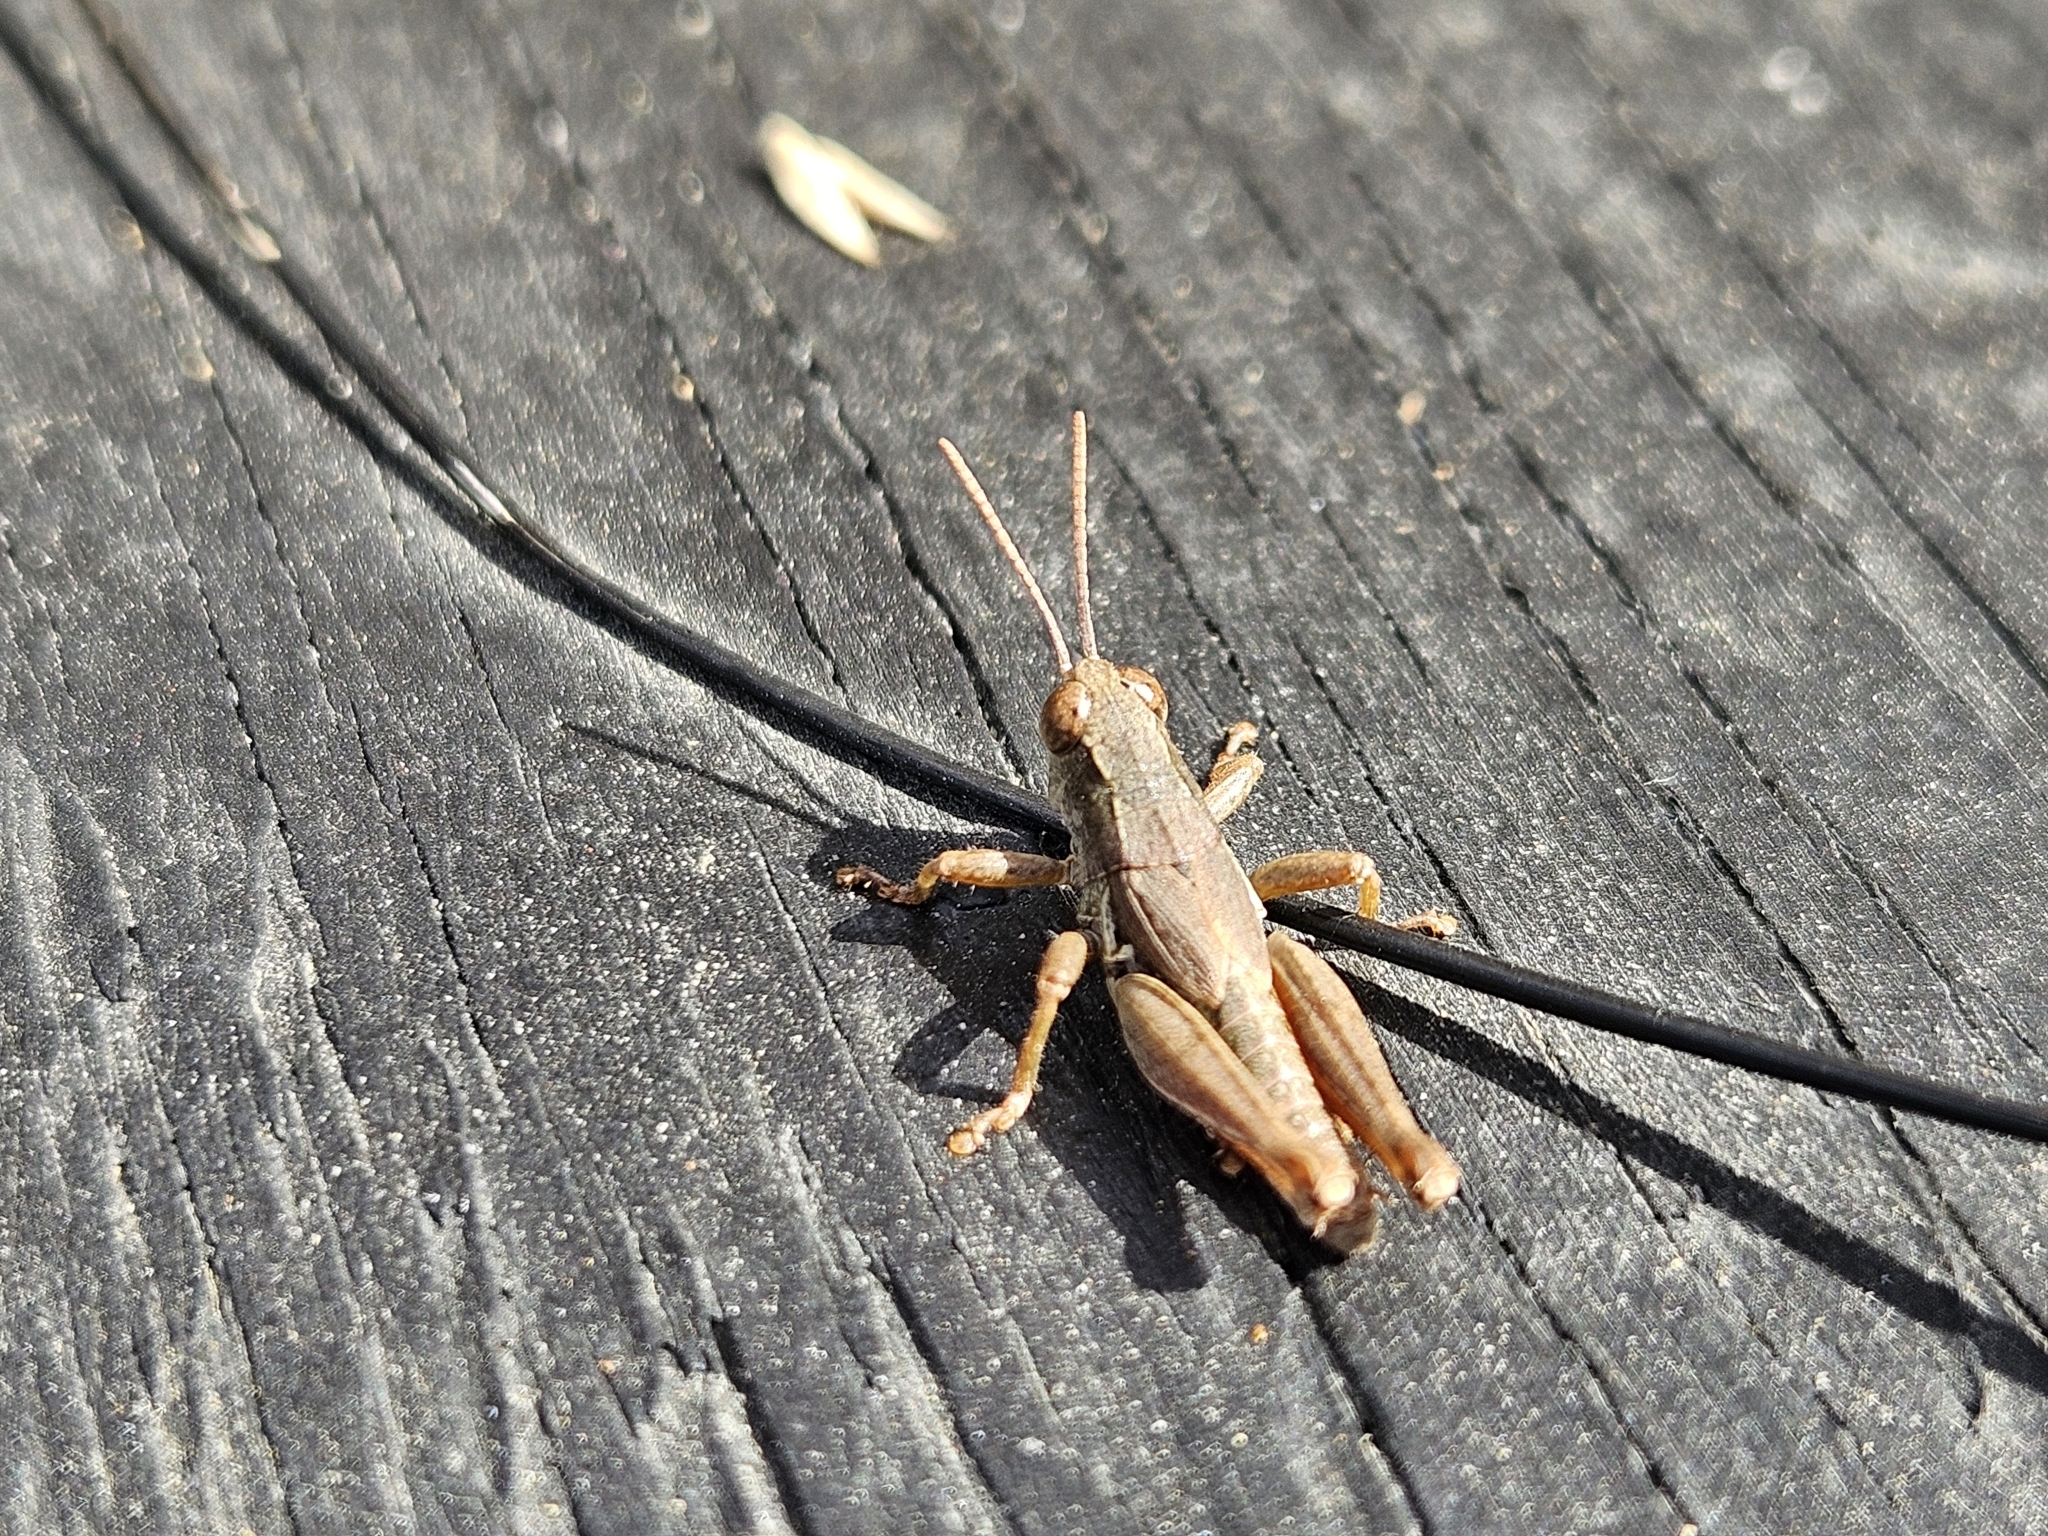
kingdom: Animalia
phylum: Arthropoda
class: Insecta
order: Orthoptera
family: Acrididae
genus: Phaulacridium
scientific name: Phaulacridium marginale
